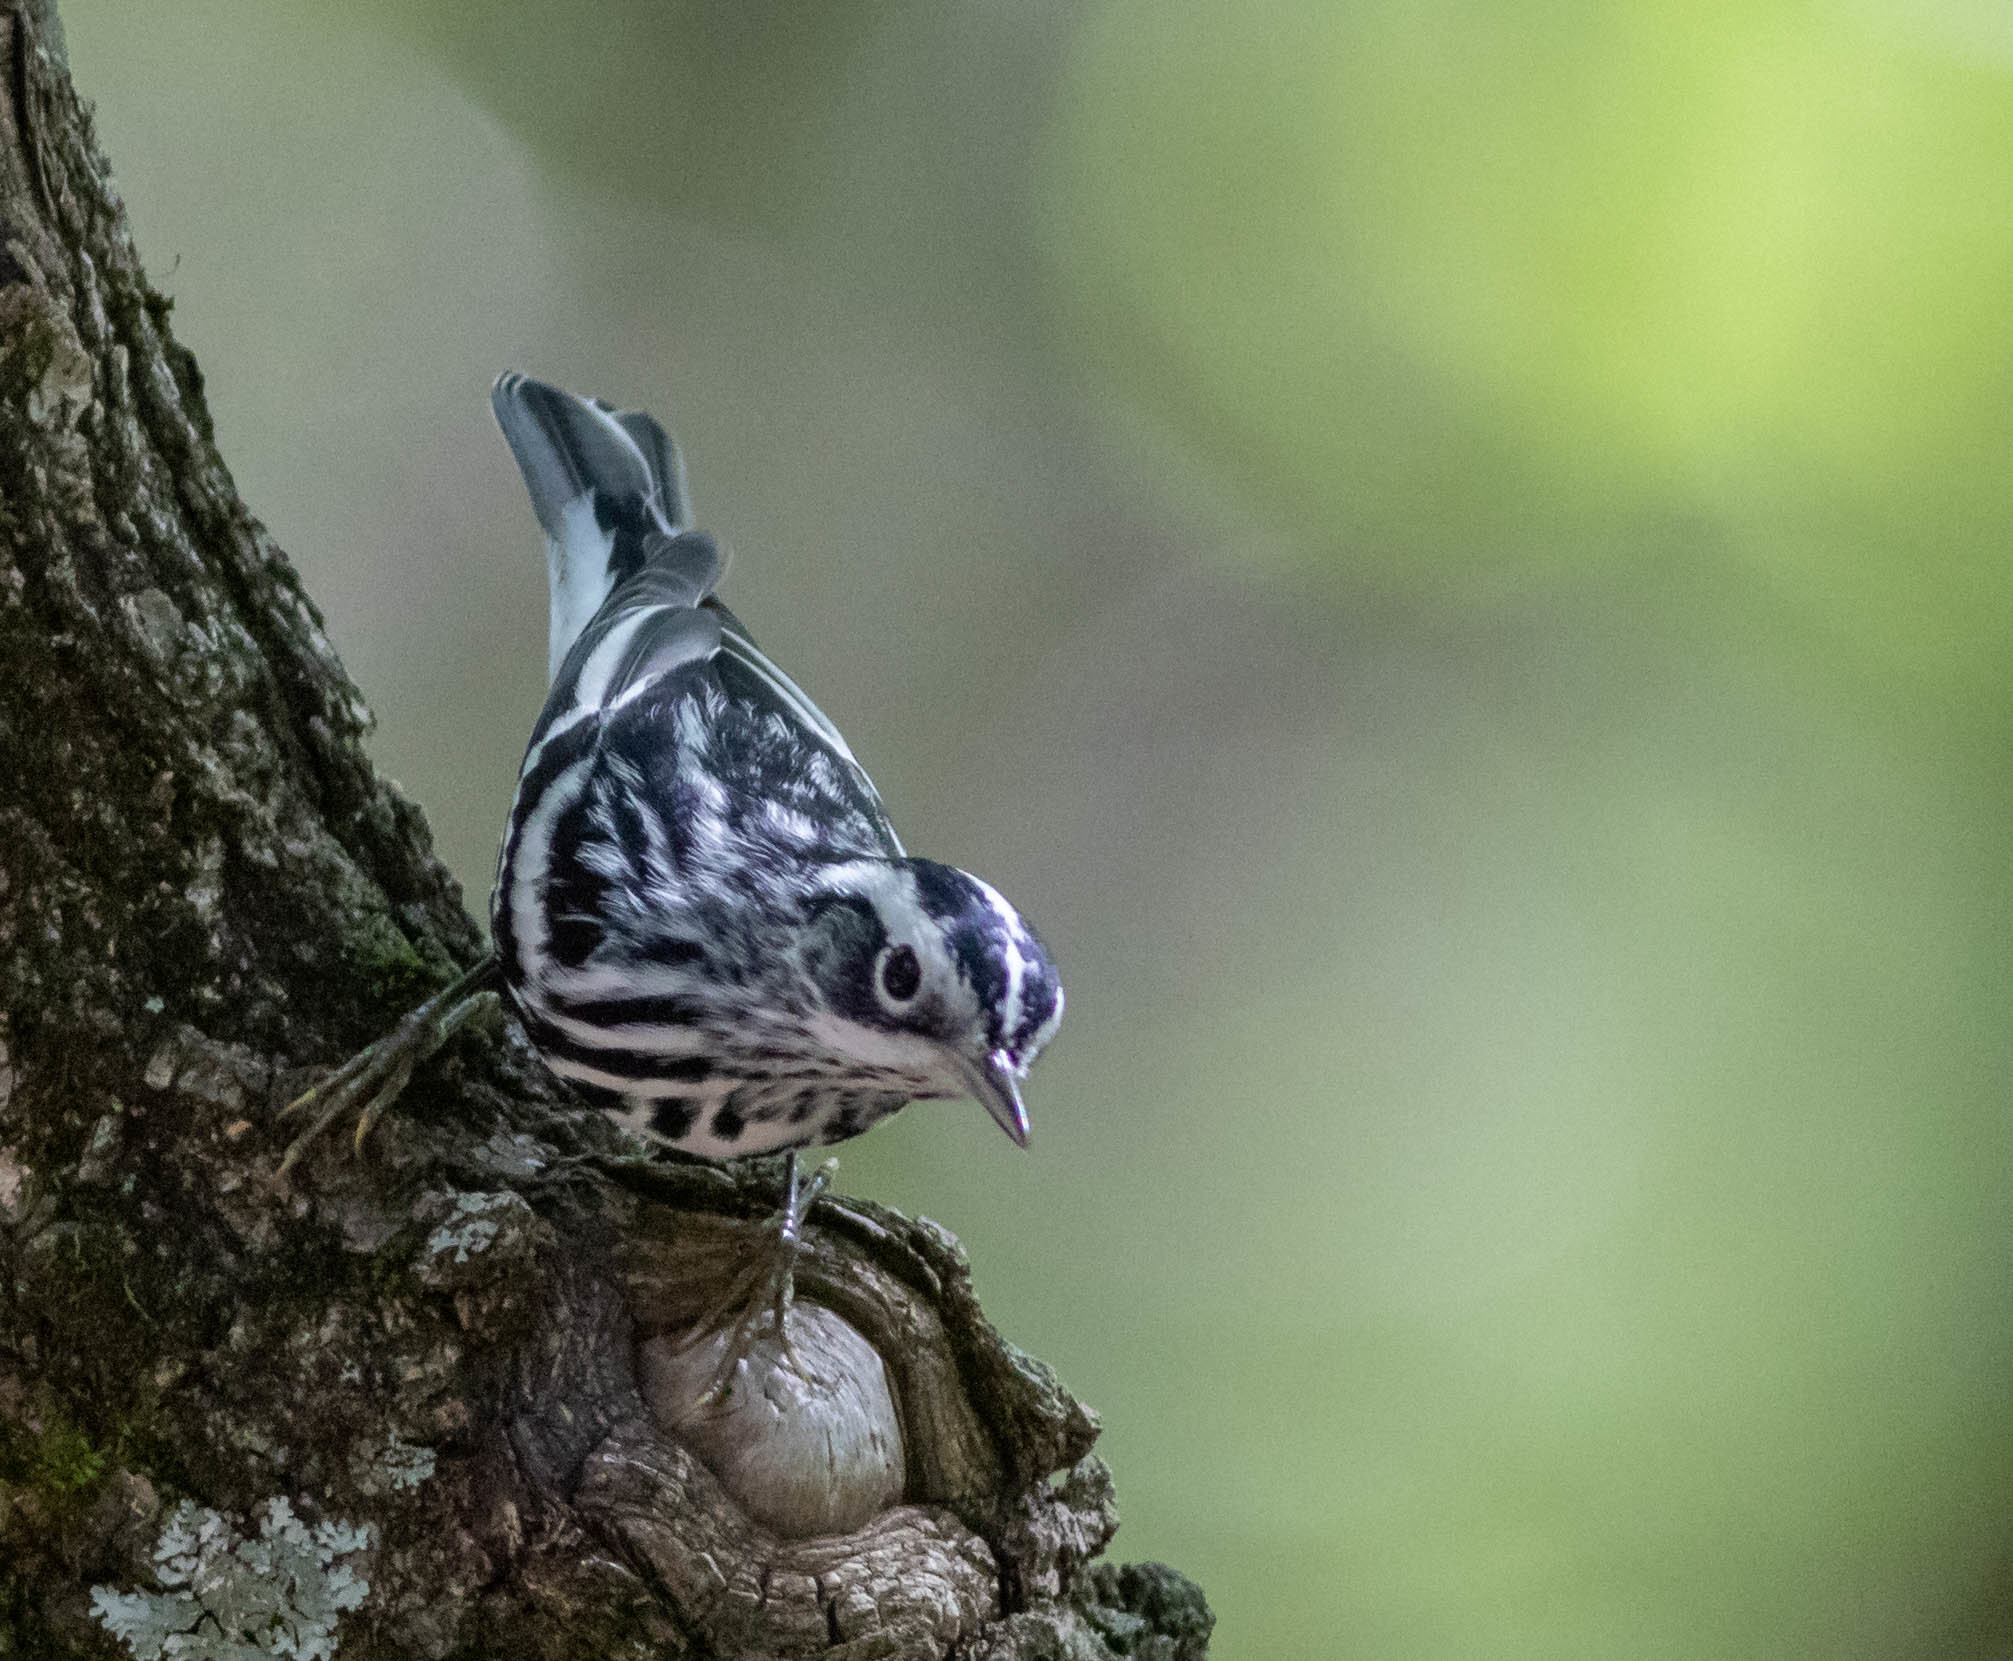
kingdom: Animalia
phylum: Chordata
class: Aves
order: Passeriformes
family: Parulidae
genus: Mniotilta
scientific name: Mniotilta varia
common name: Black-and-white warbler
